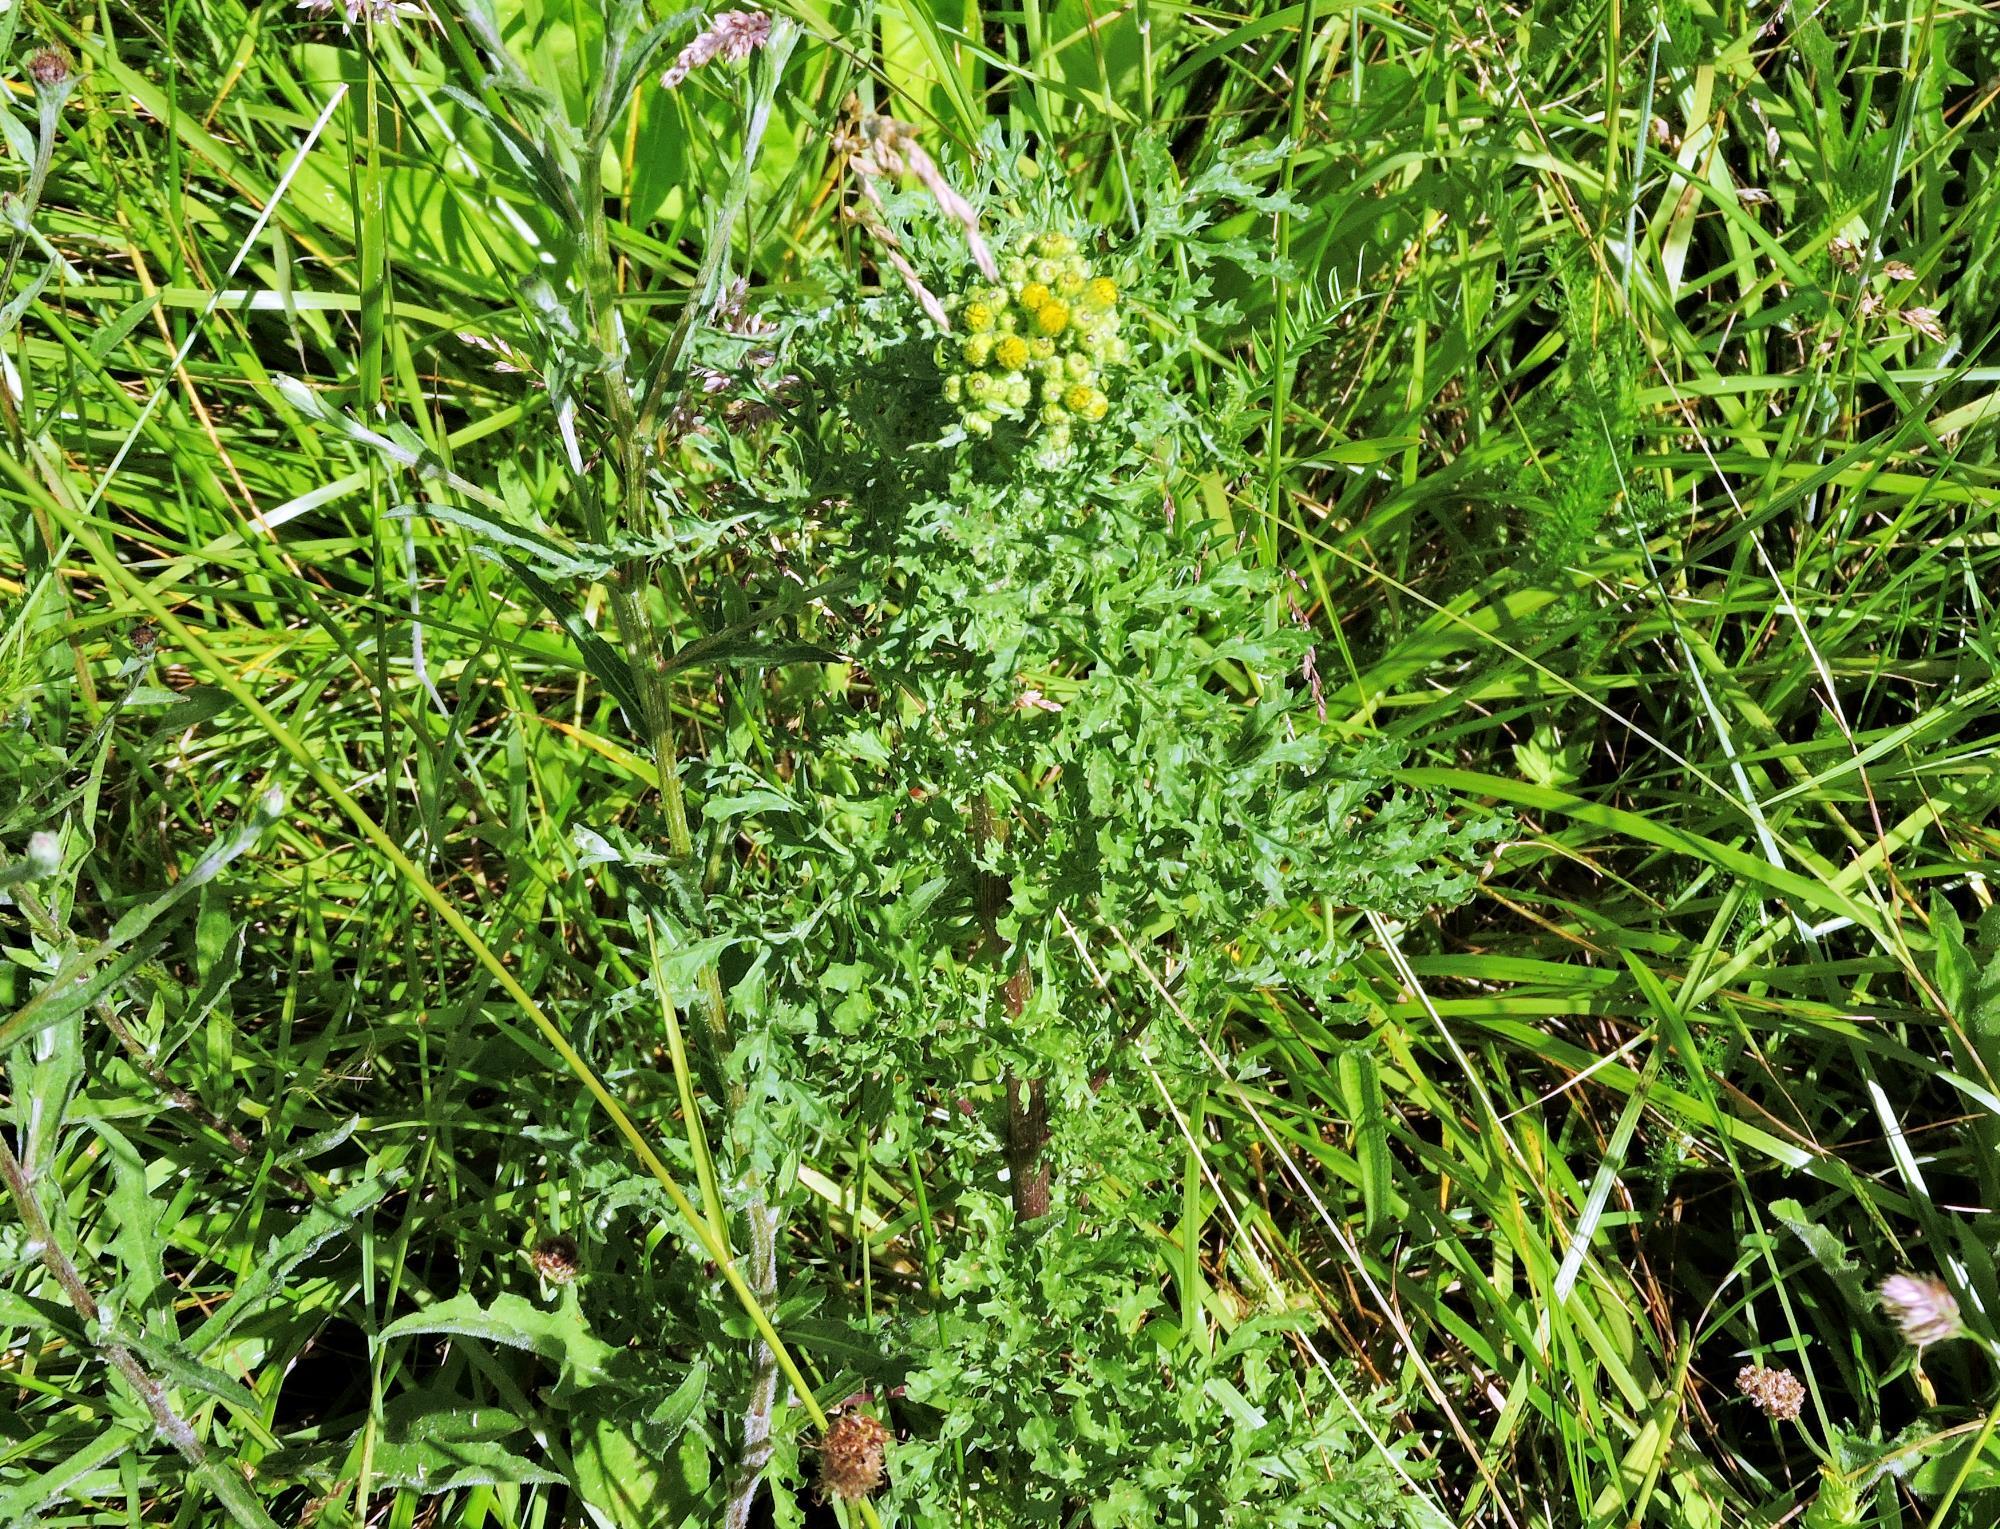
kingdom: Plantae
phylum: Tracheophyta
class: Magnoliopsida
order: Asterales
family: Asteraceae
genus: Jacobaea
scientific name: Jacobaea vulgaris
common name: Stinking willie
